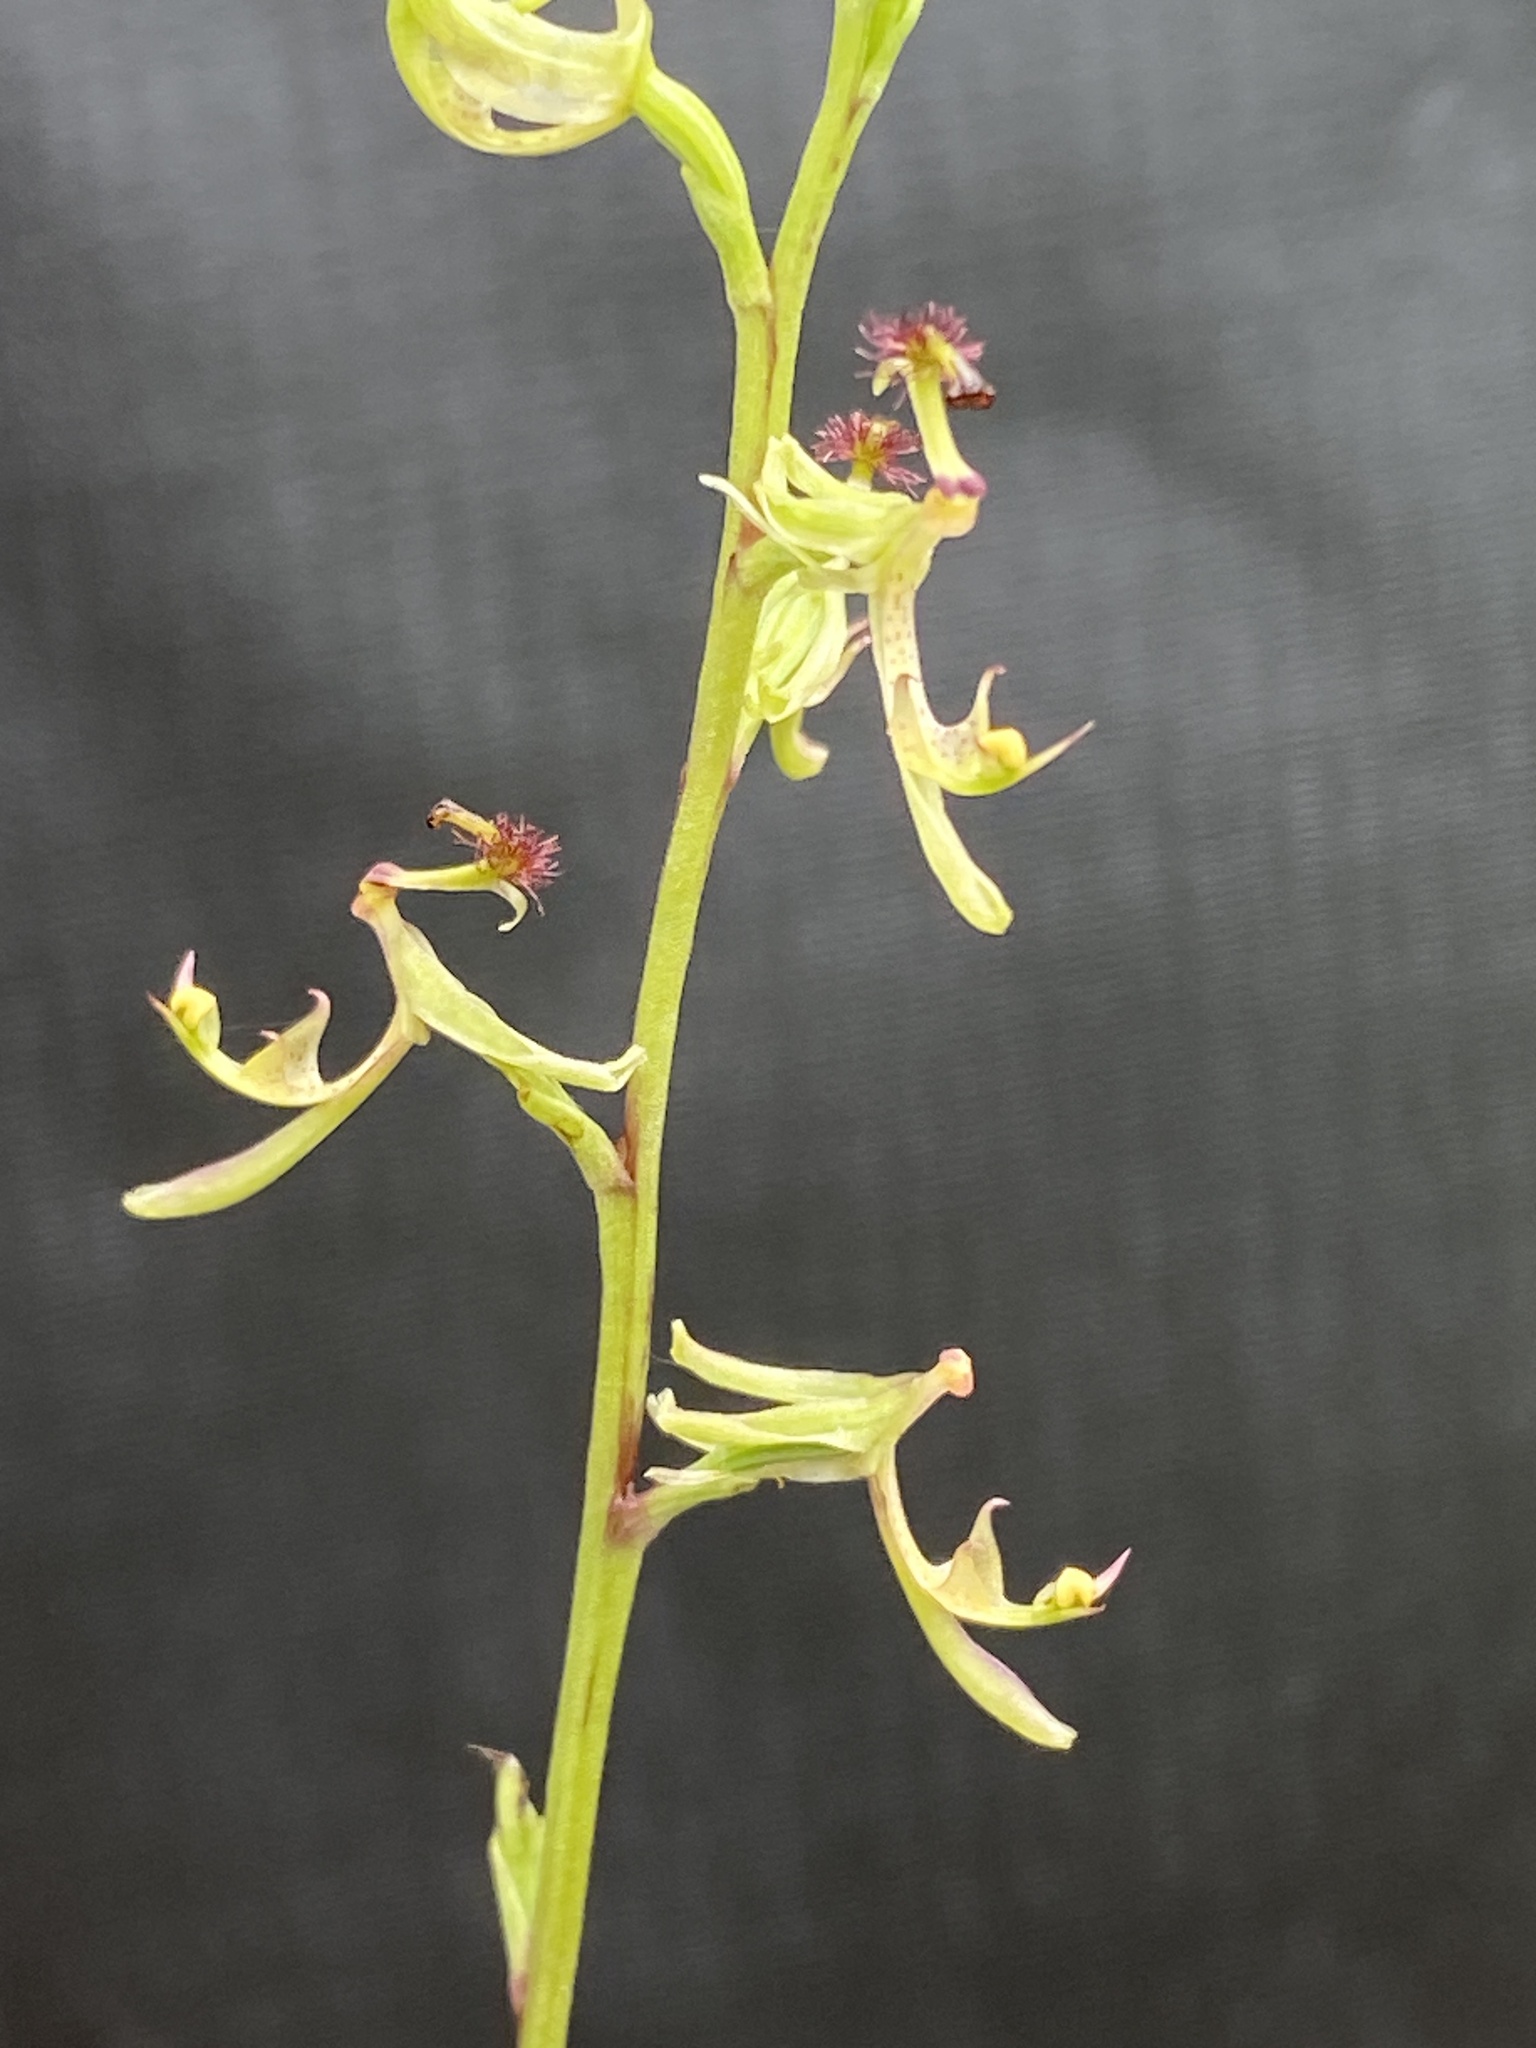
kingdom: Plantae
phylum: Tracheophyta
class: Liliopsida
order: Asparagales
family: Orchidaceae
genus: Arthrochilus
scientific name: Arthrochilus prolixus
